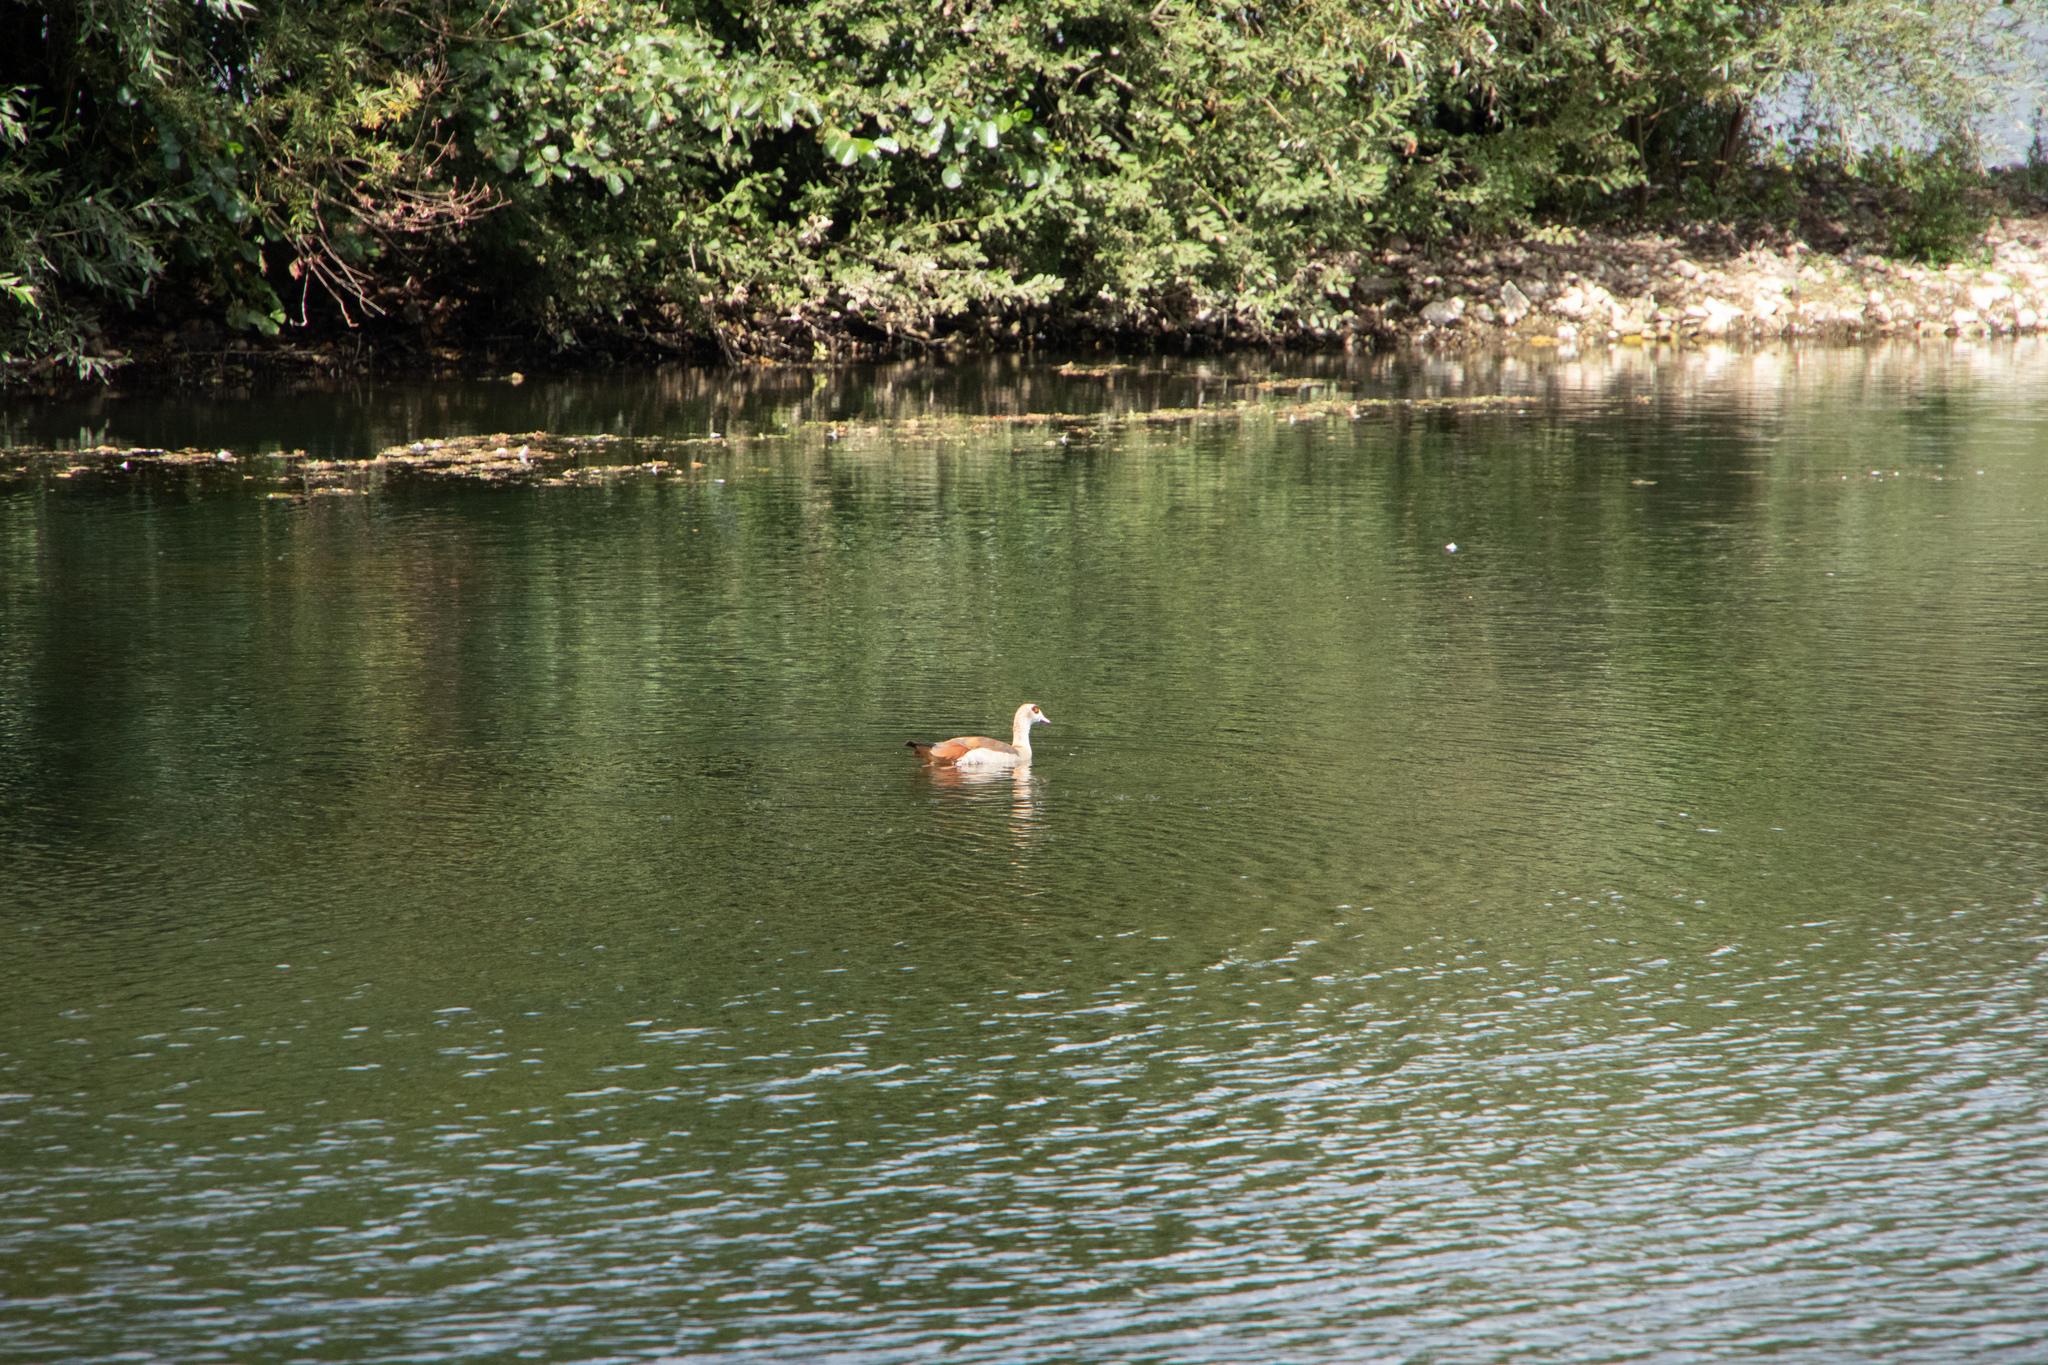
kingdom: Animalia
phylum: Chordata
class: Aves
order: Anseriformes
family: Anatidae
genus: Alopochen
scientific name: Alopochen aegyptiaca
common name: Egyptian goose
